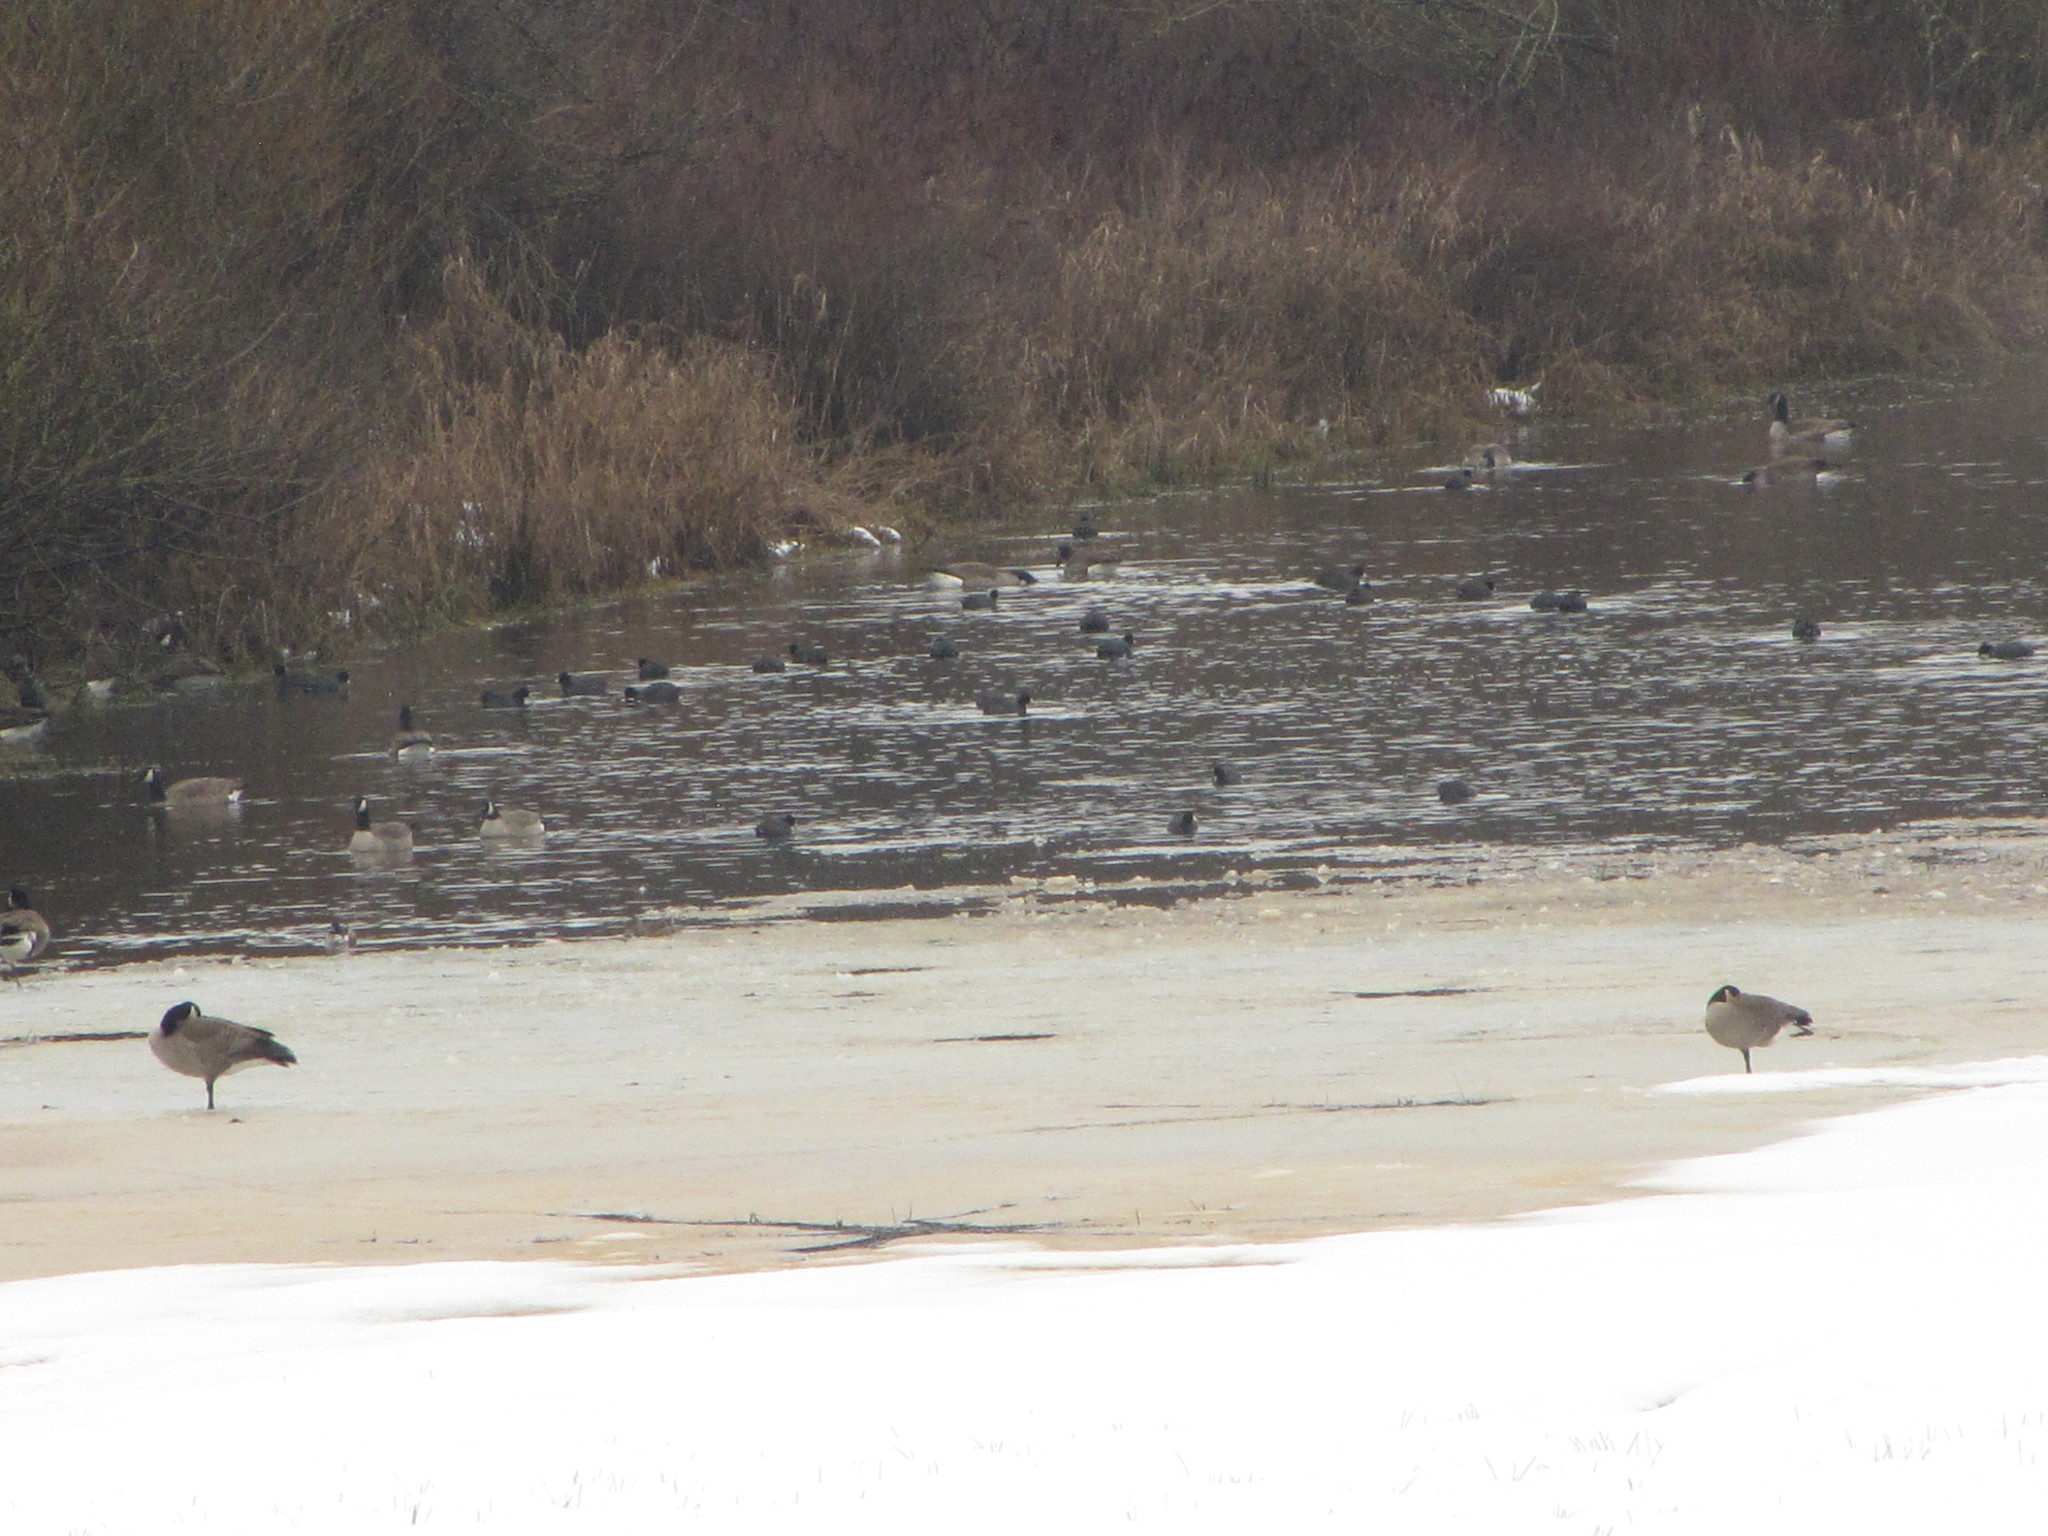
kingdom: Animalia
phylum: Chordata
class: Aves
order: Anseriformes
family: Anatidae
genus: Branta
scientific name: Branta canadensis
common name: Canada goose
